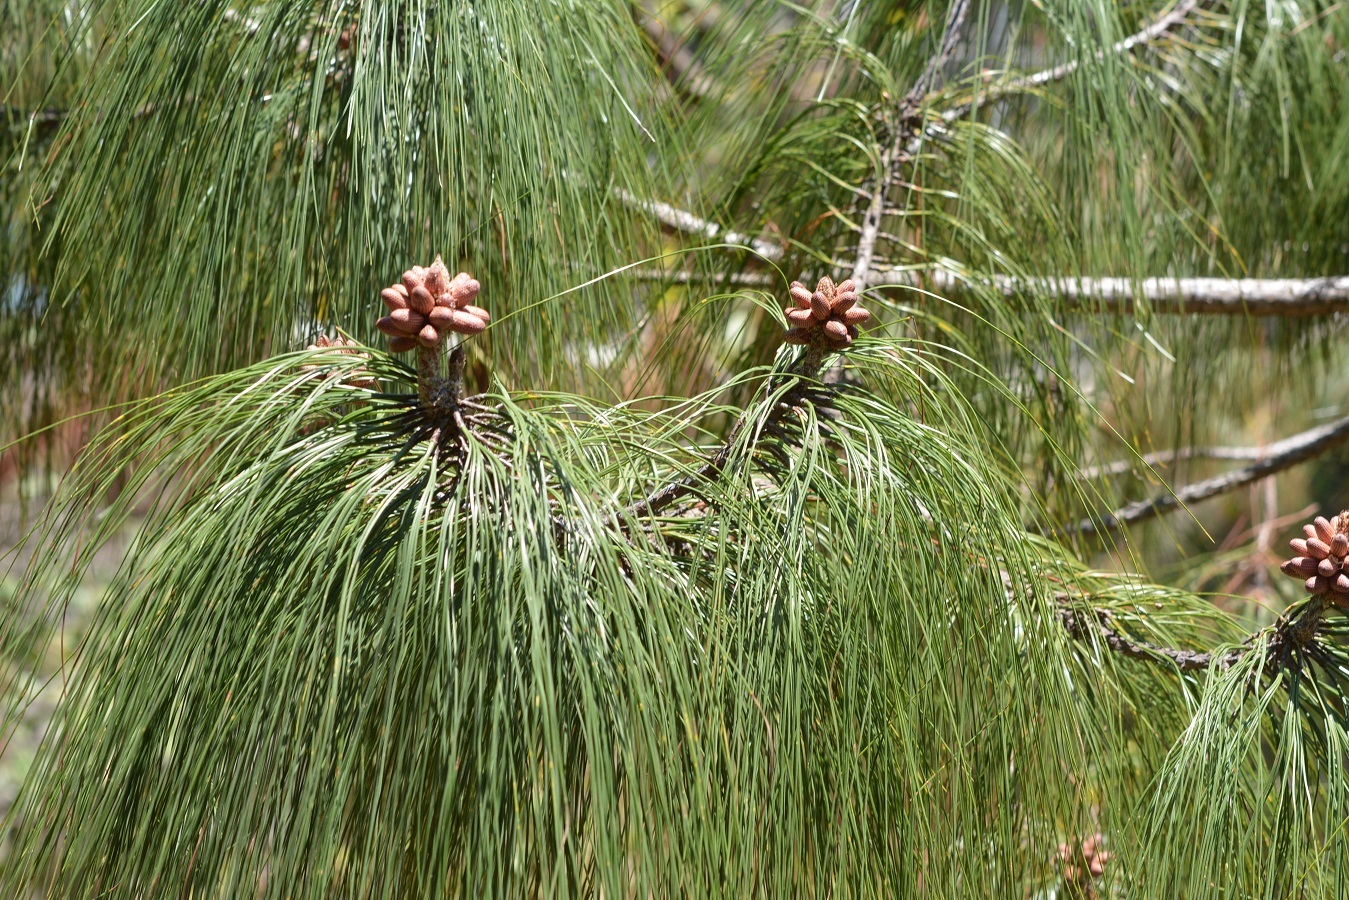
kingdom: Plantae
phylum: Tracheophyta
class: Pinopsida
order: Pinales
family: Pinaceae
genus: Pinus
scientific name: Pinus pseudostrobus
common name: False weymouth pine
